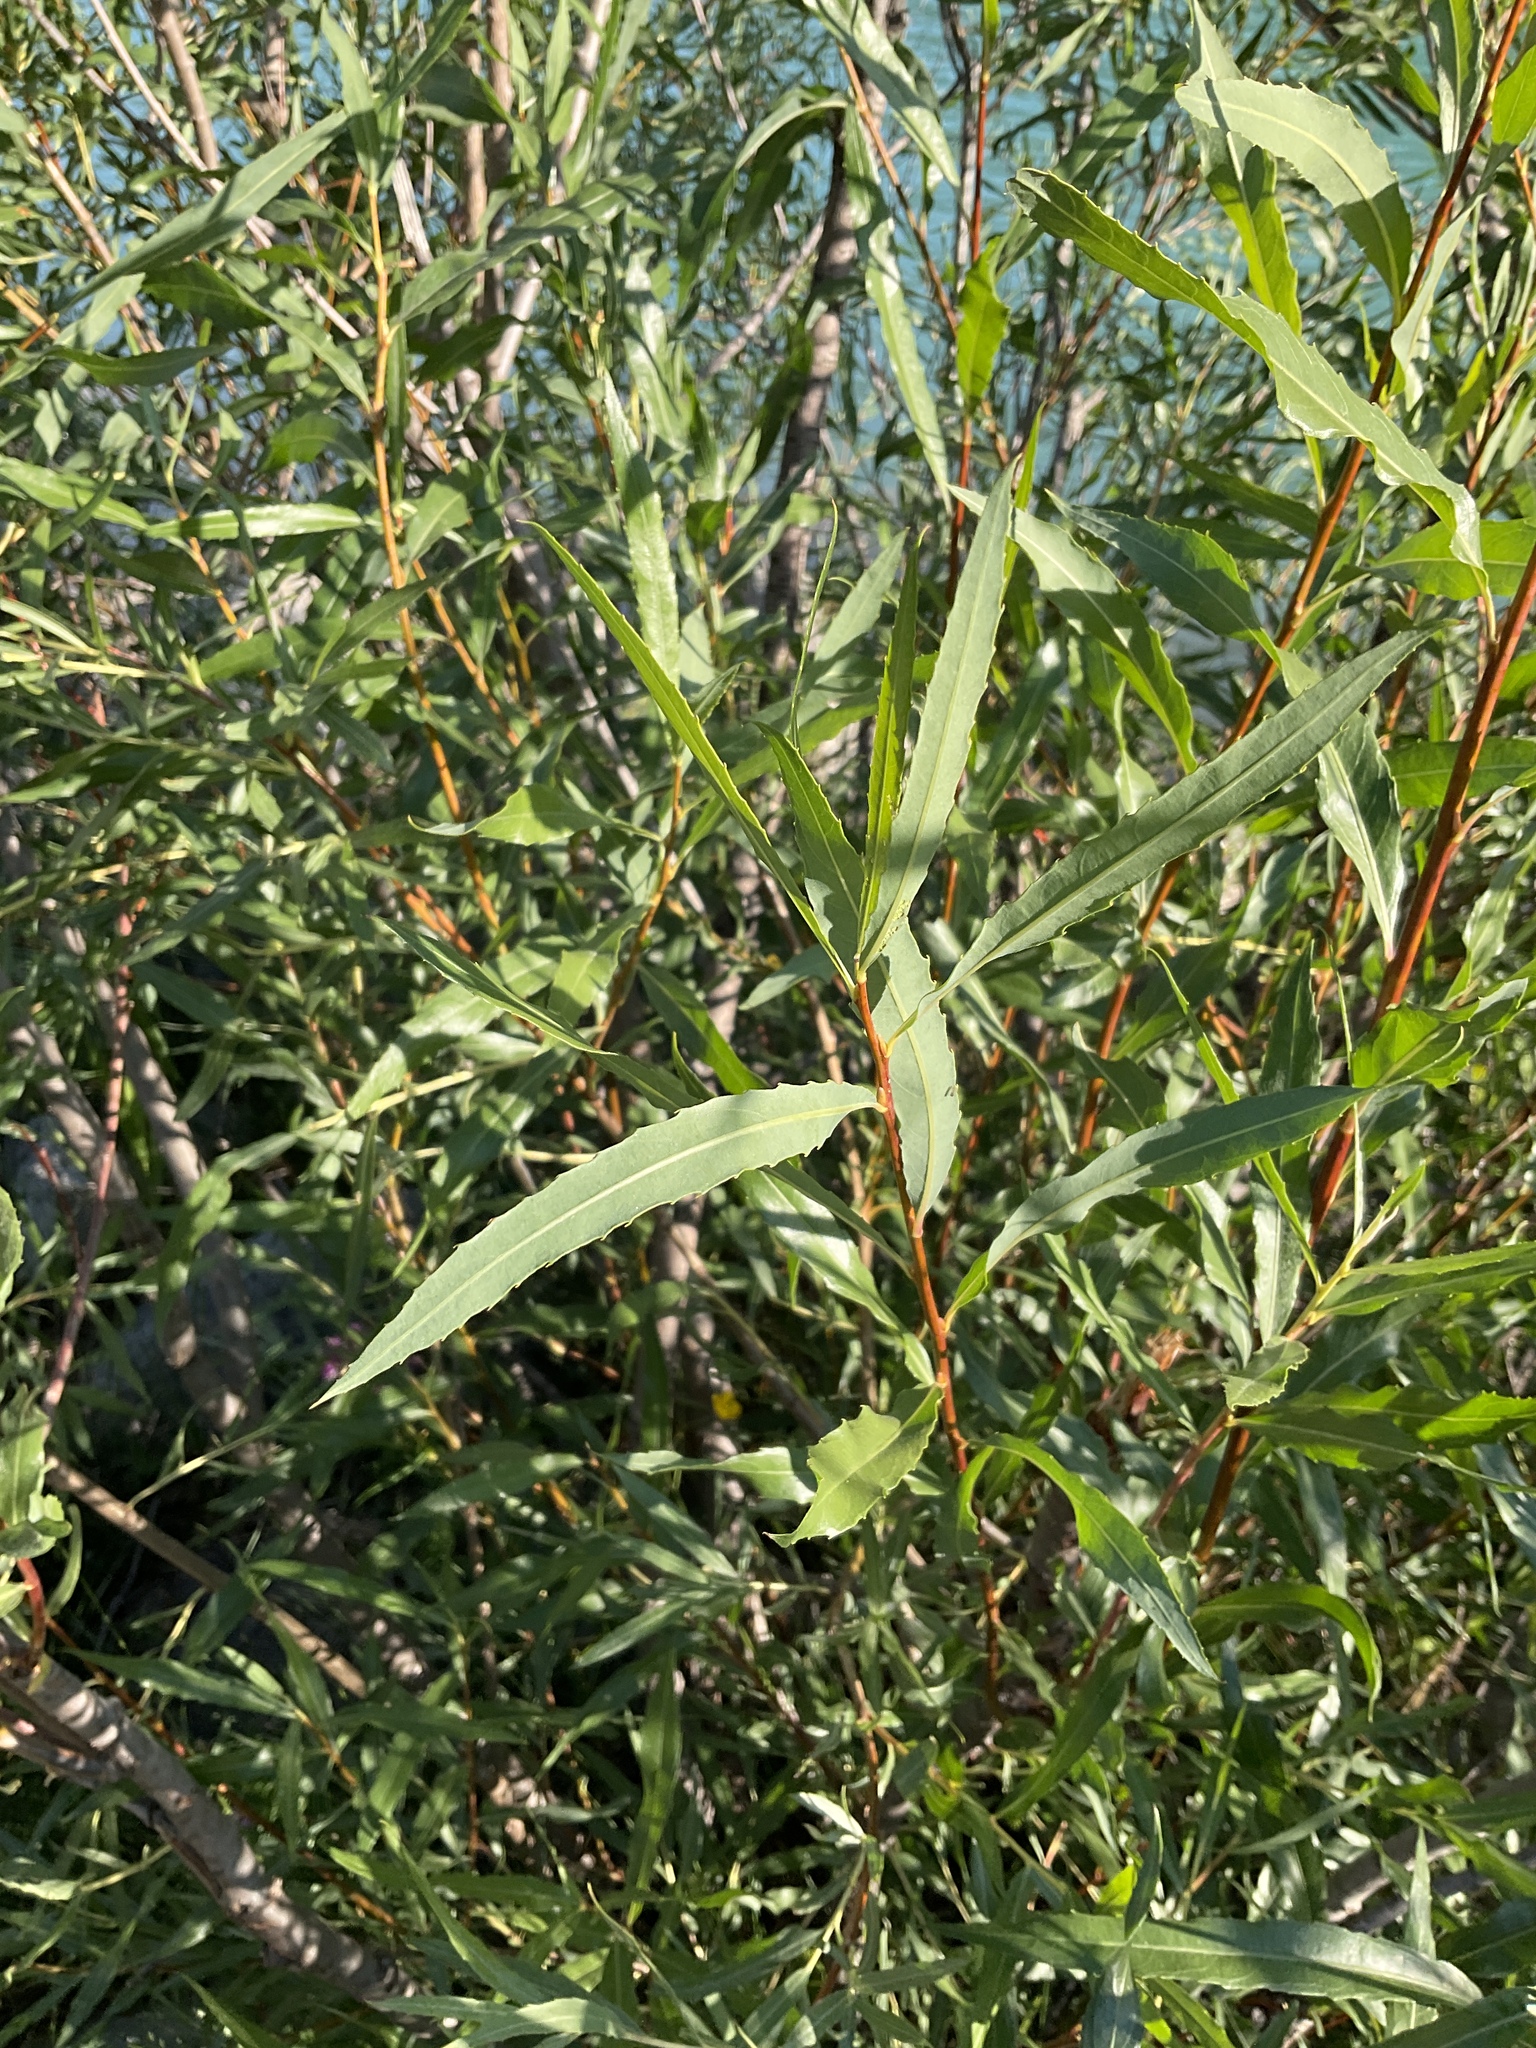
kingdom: Plantae
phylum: Tracheophyta
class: Magnoliopsida
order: Malpighiales
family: Salicaceae
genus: Salix
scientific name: Salix interior
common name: Sandbar willow
